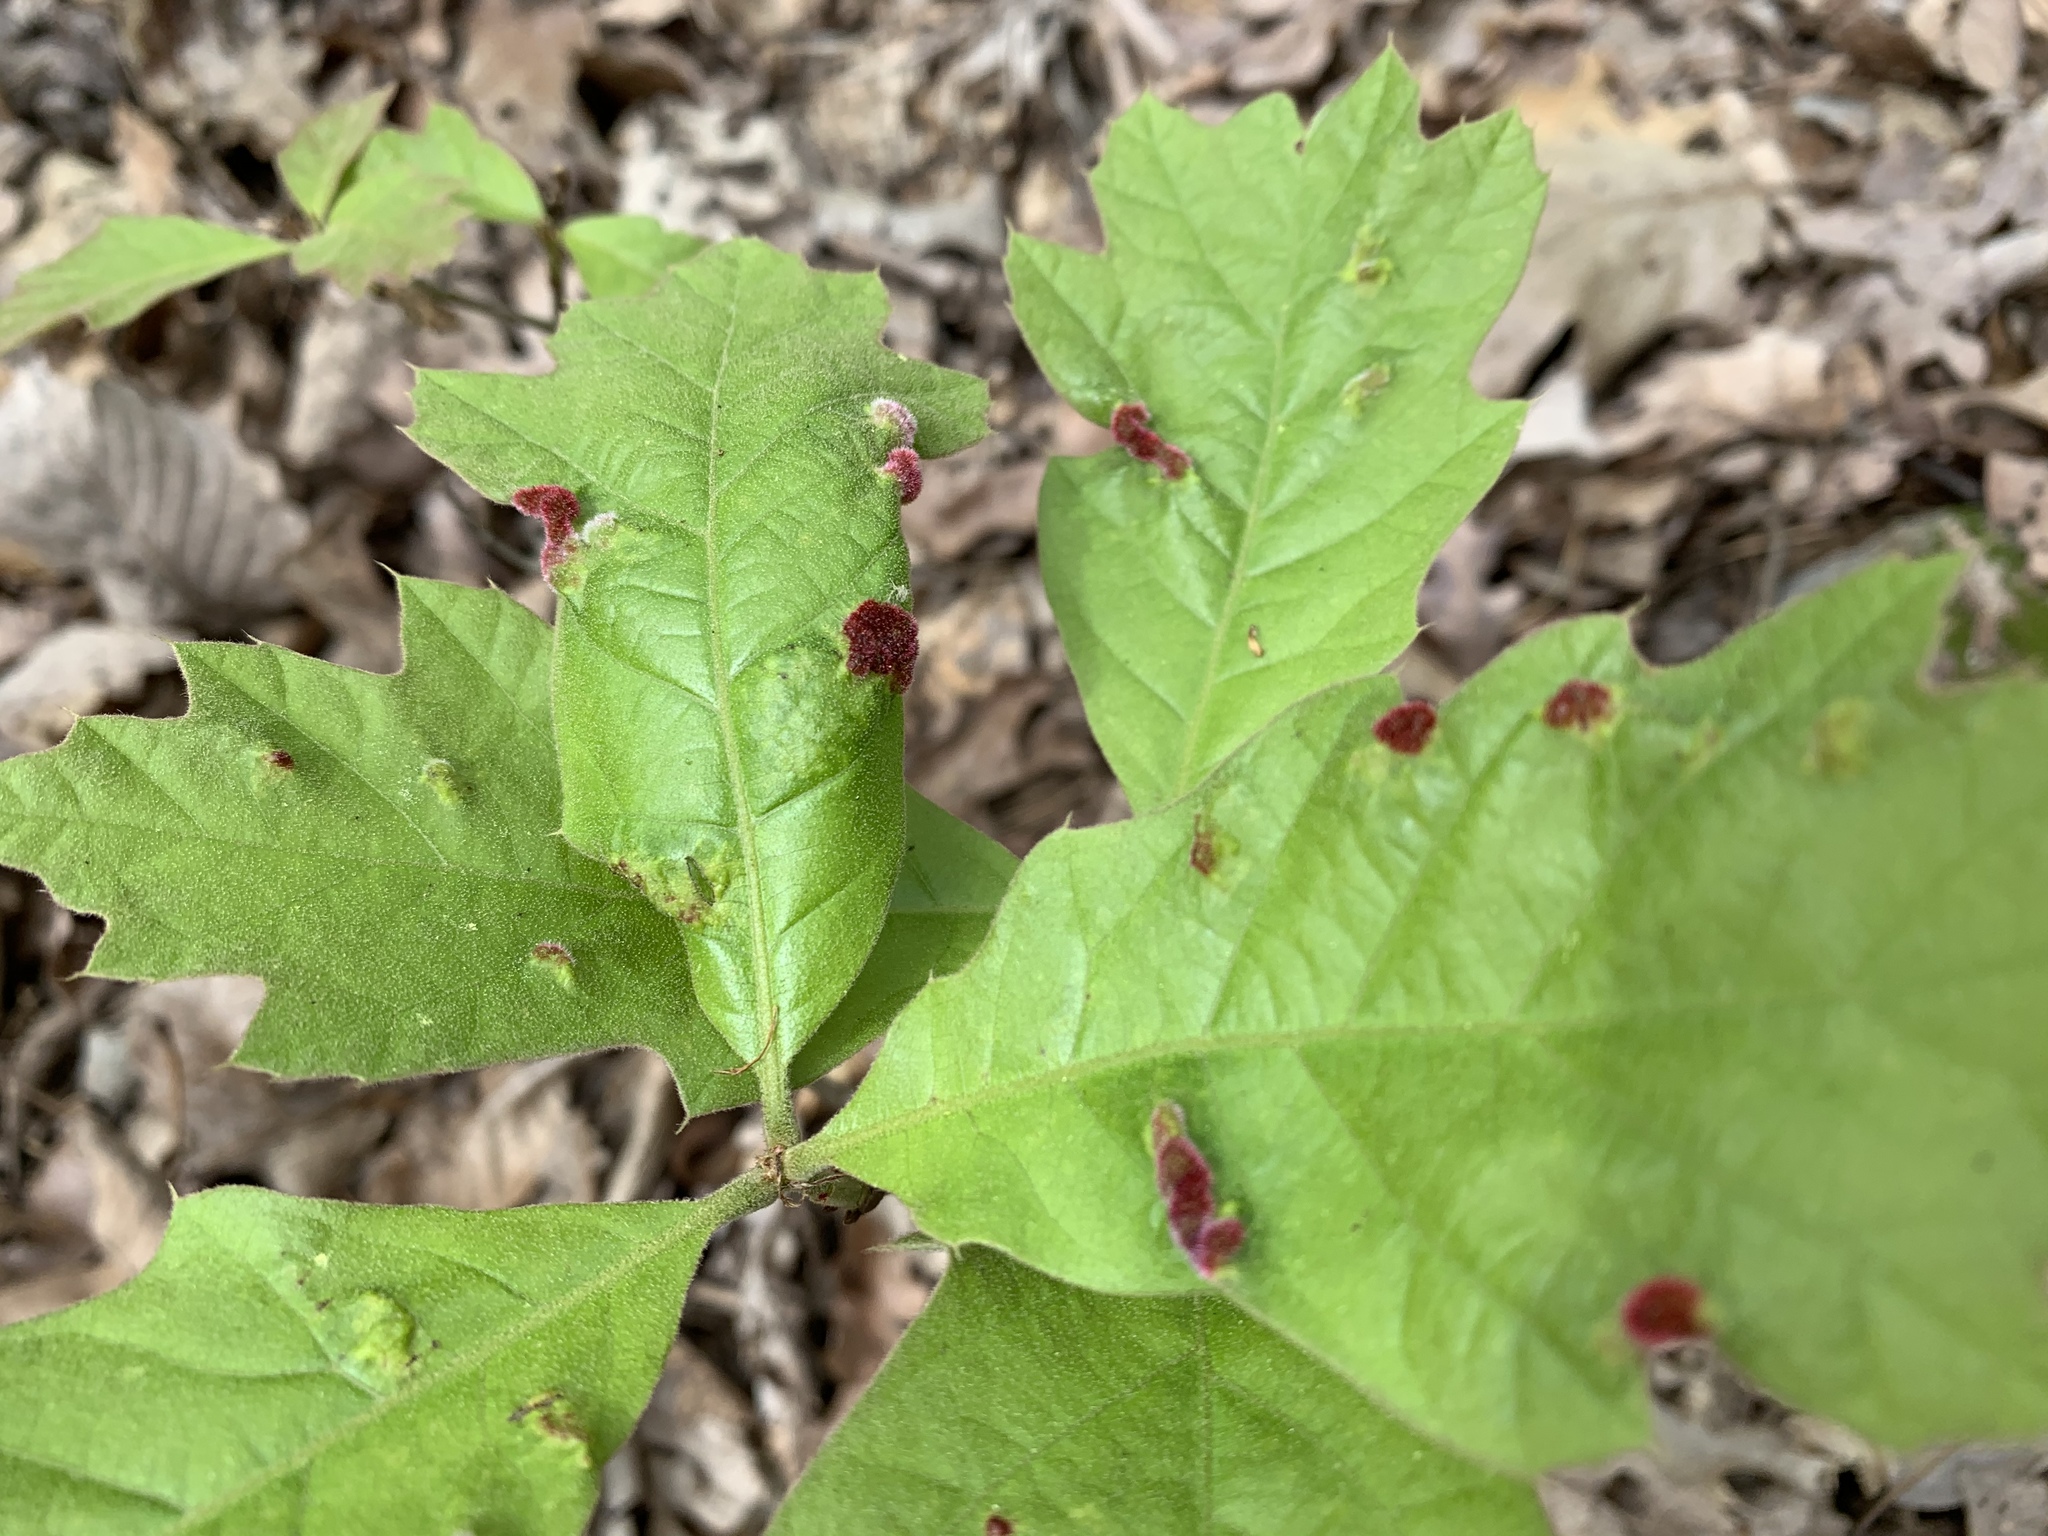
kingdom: Animalia
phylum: Arthropoda
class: Arachnida
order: Trombidiformes
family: Eriophyidae
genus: Aceria
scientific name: Aceria
